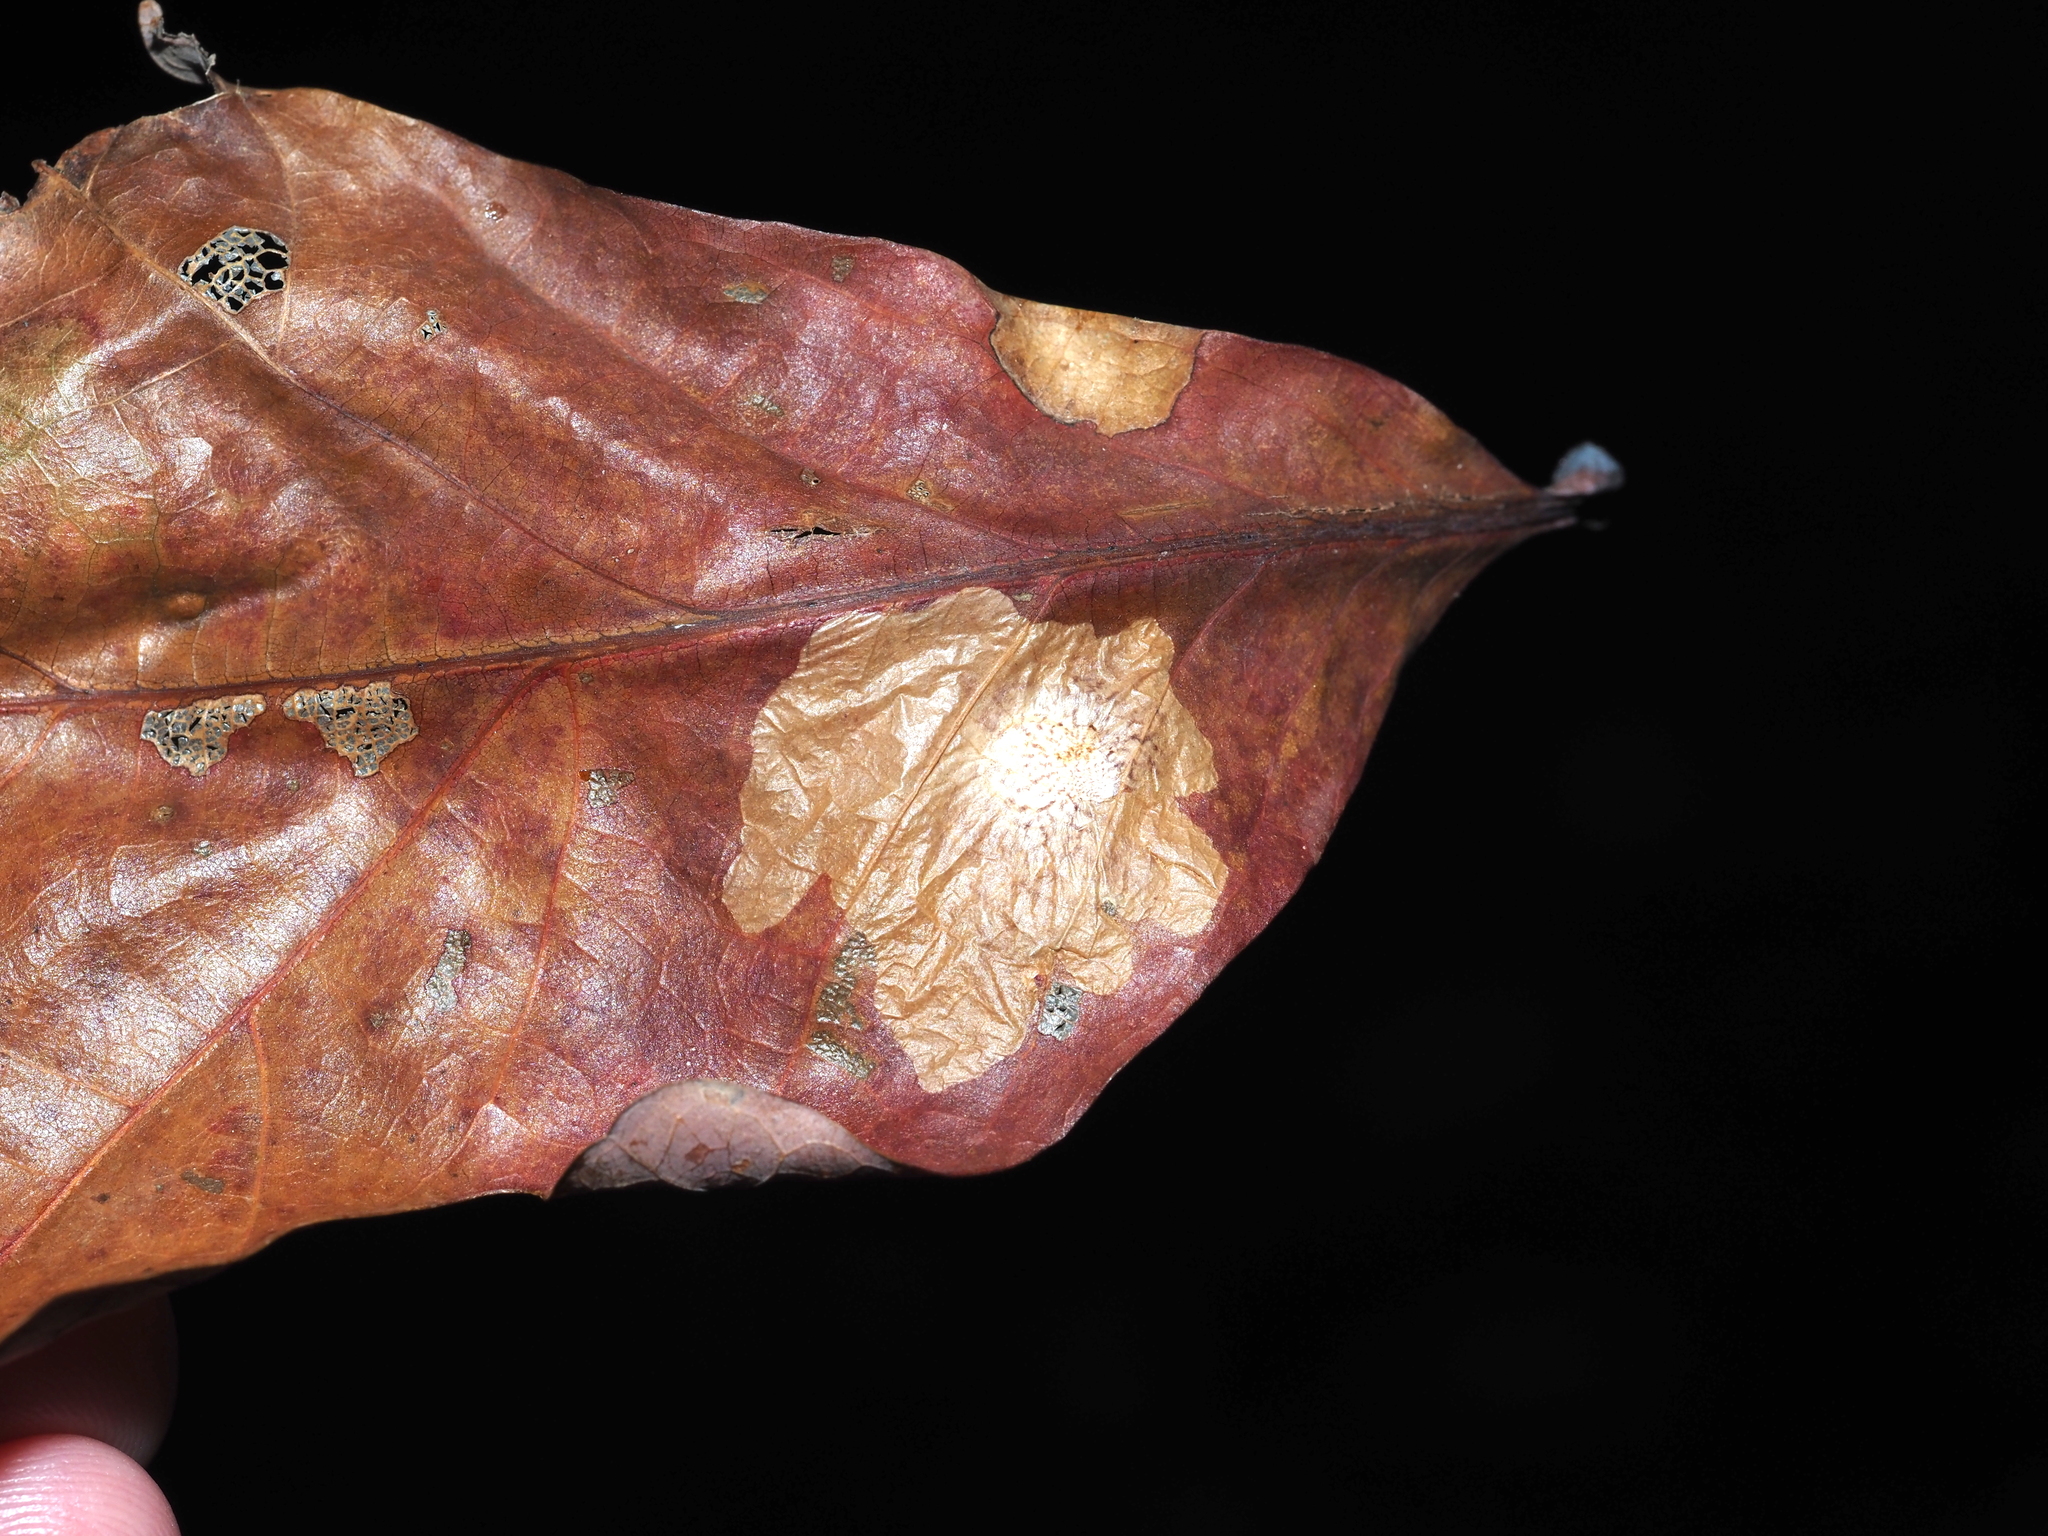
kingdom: Animalia
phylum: Arthropoda
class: Insecta
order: Lepidoptera
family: Tischeriidae
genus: Tischeria
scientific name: Tischeria quercitella
